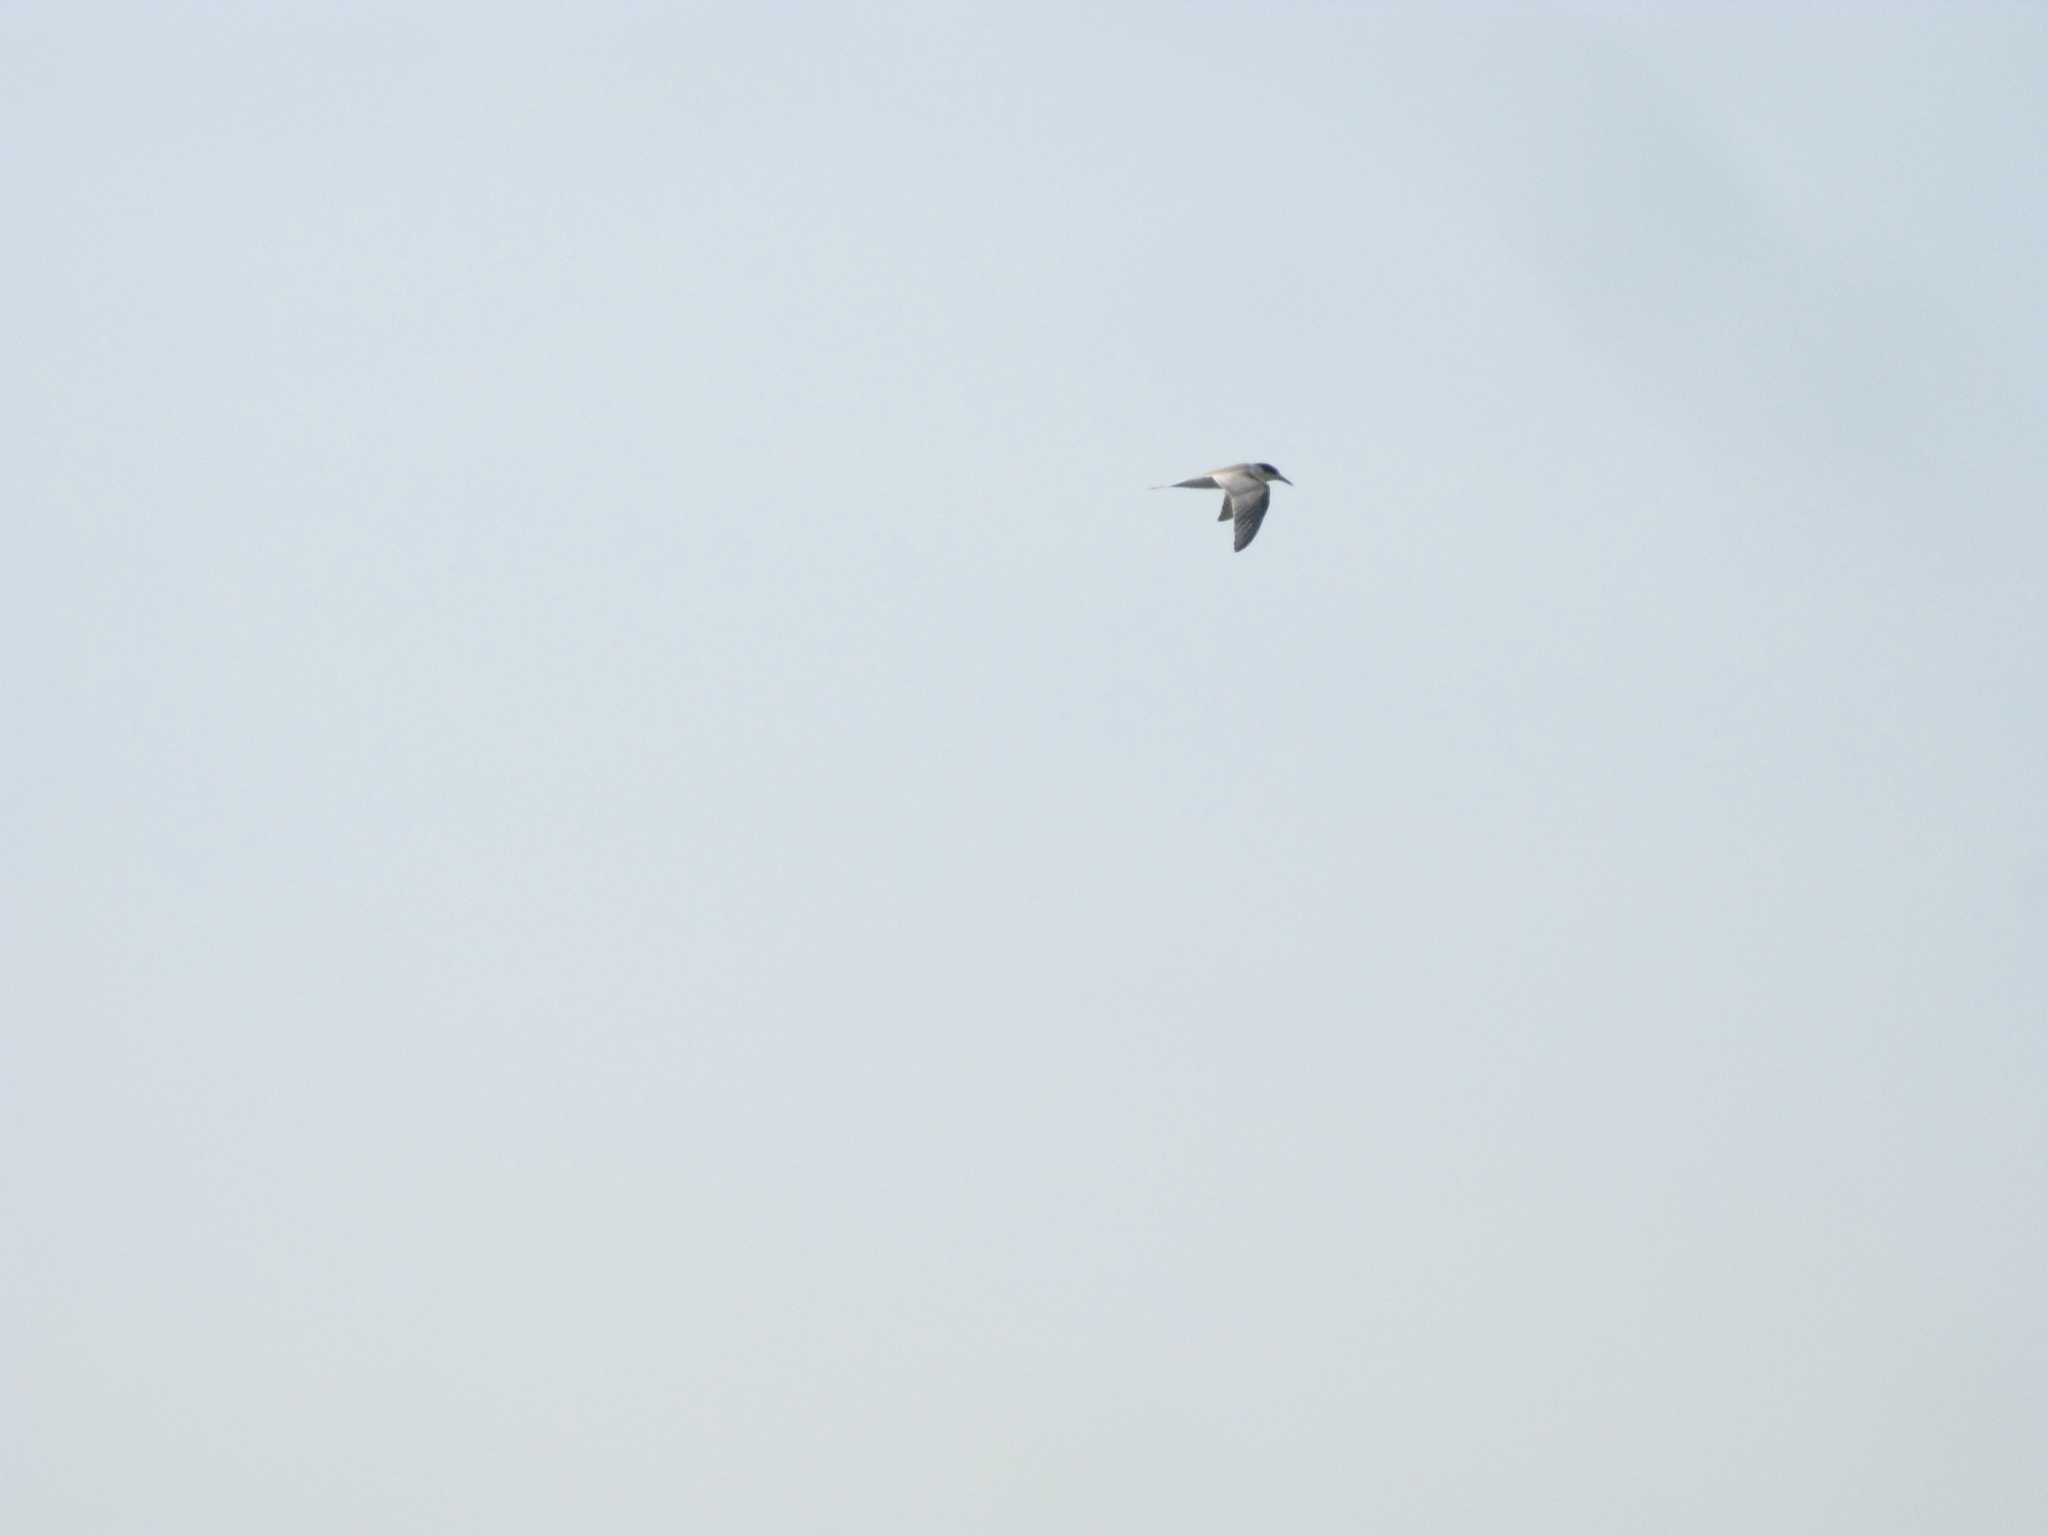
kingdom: Animalia
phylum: Chordata
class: Aves
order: Charadriiformes
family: Laridae
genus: Sterna
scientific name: Sterna hirundo
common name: Common tern
